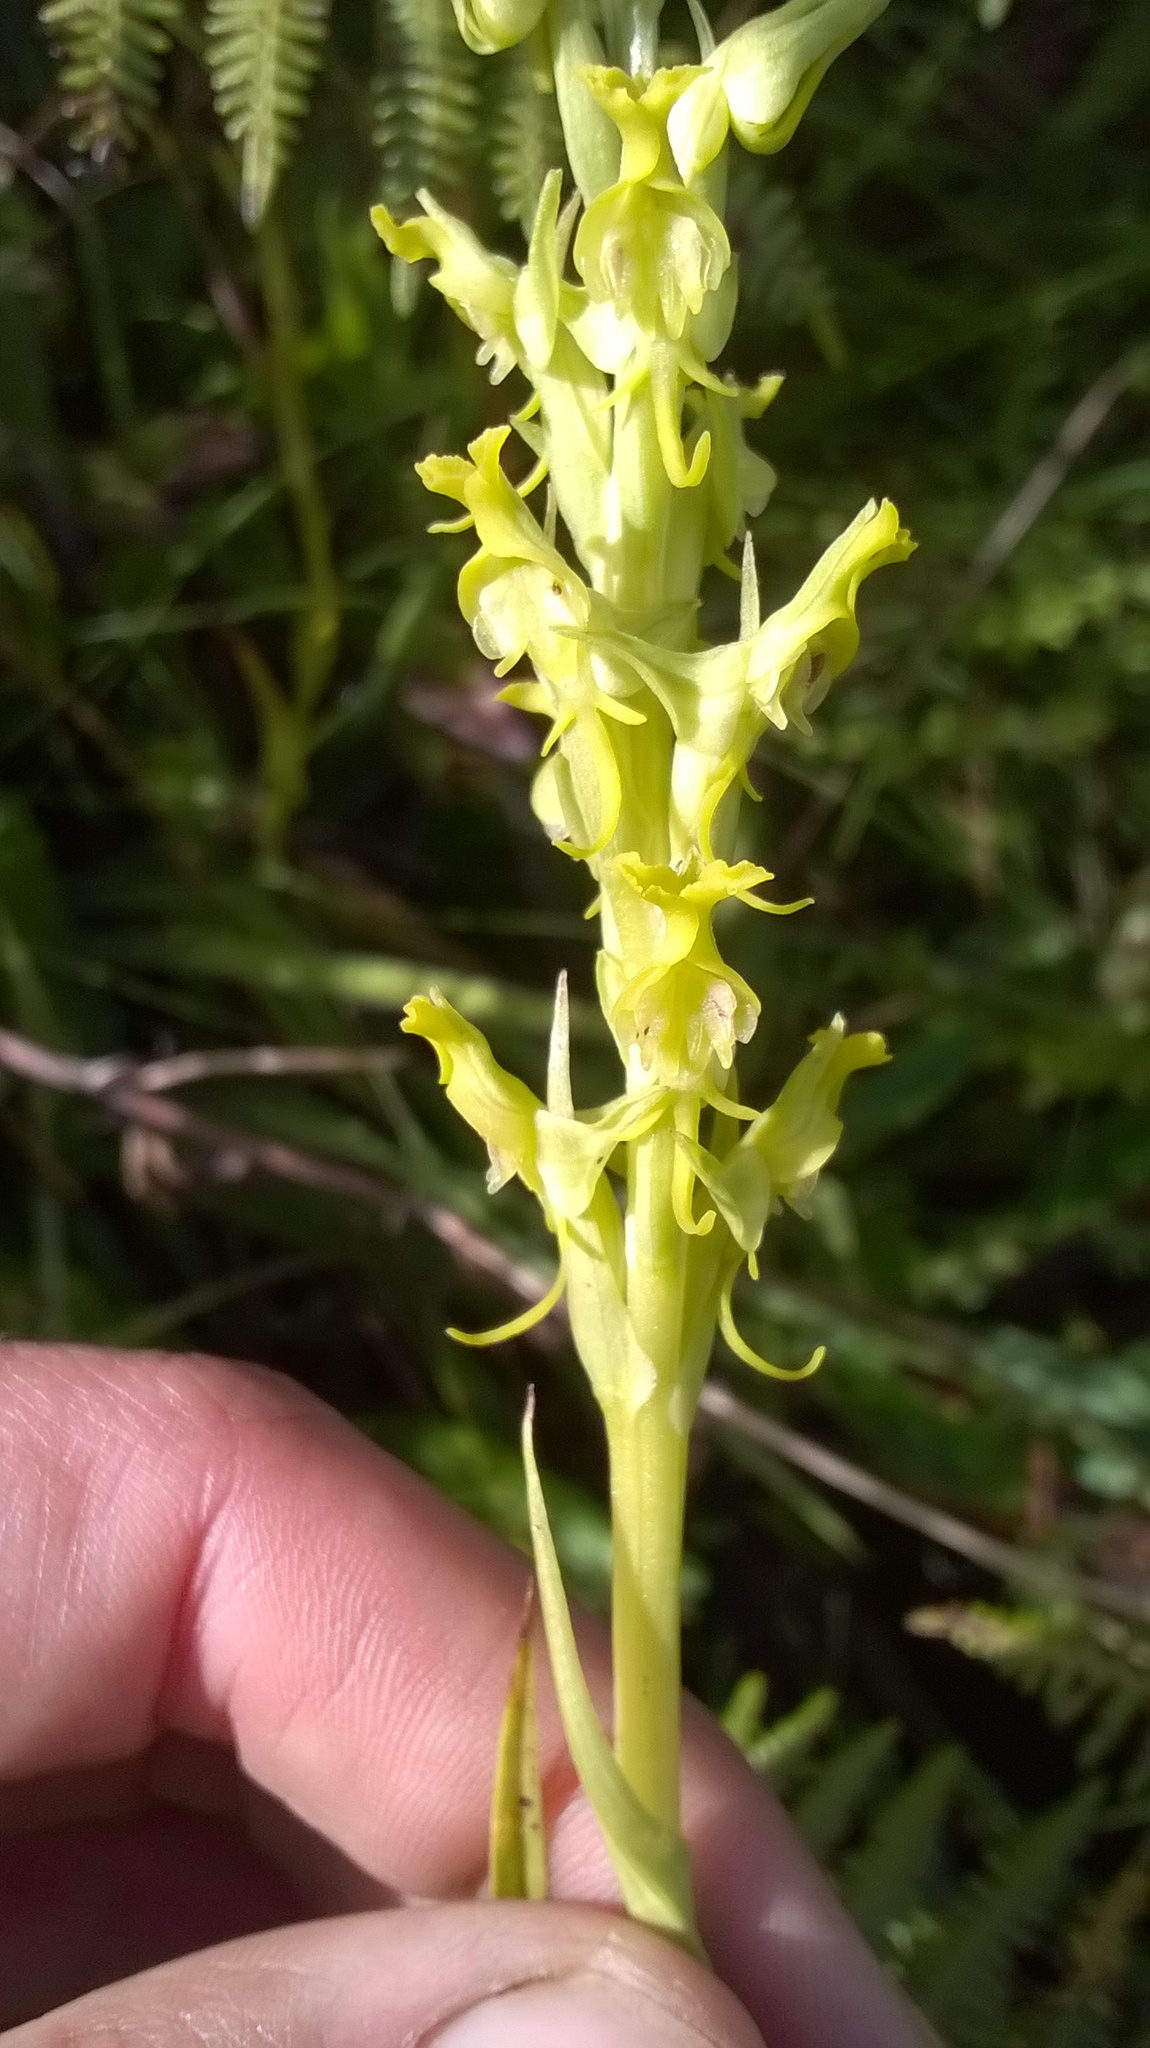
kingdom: Plantae
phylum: Tracheophyta
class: Liliopsida
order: Asparagales
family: Orchidaceae
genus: Roeperocharis
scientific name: Roeperocharis wentzeliana
